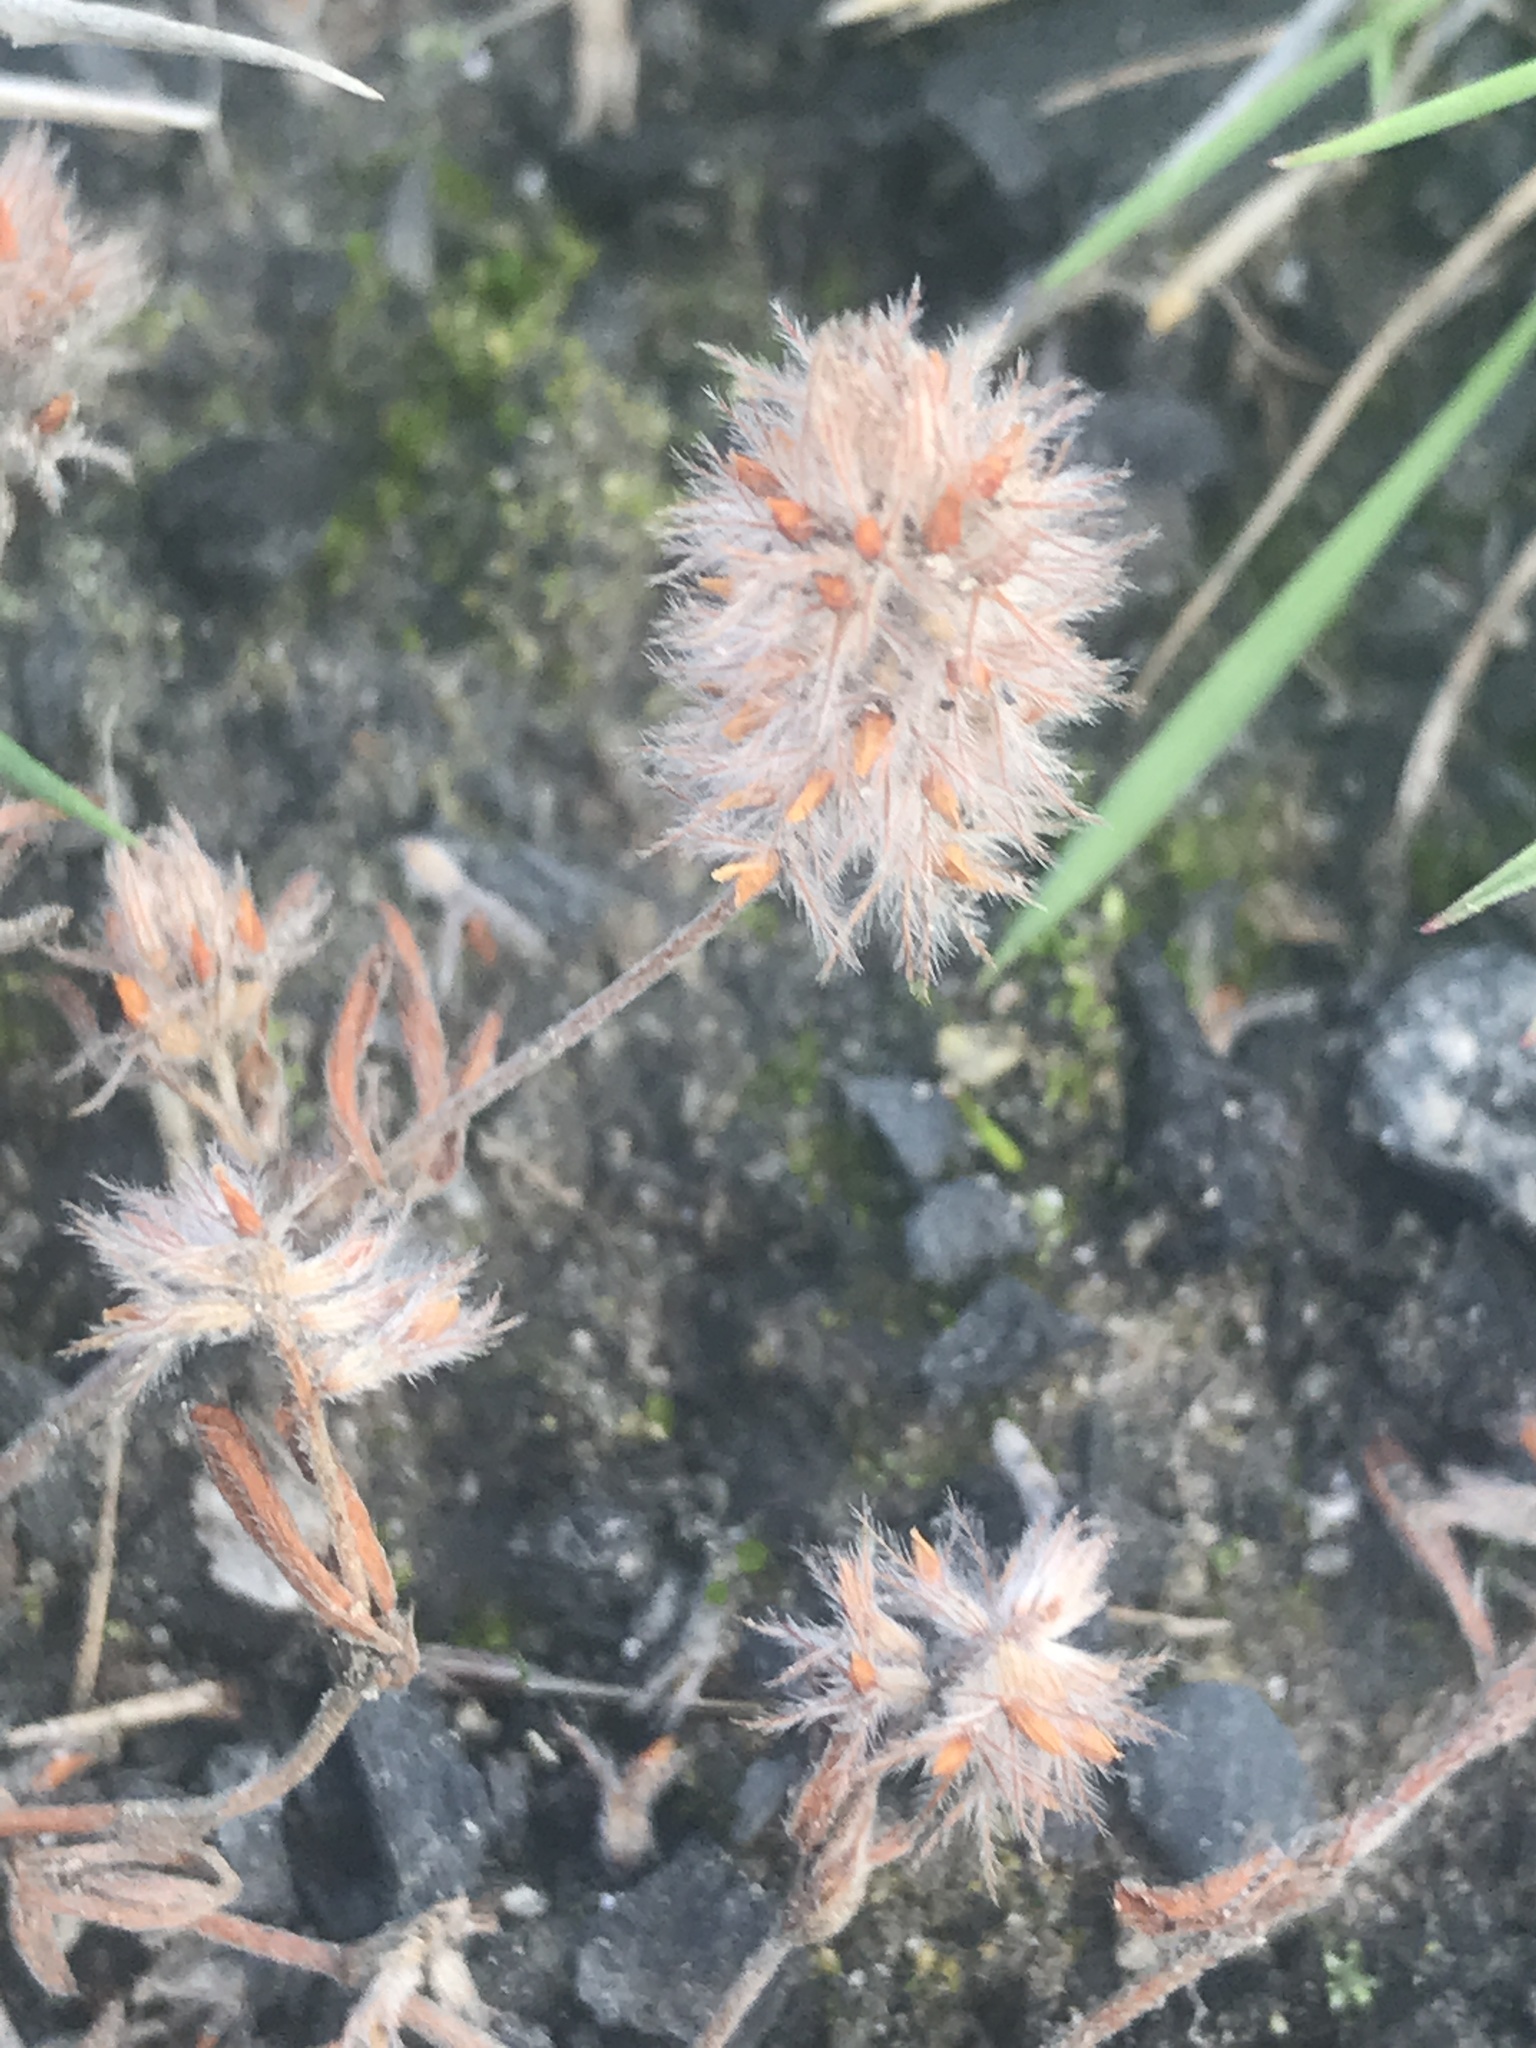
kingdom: Plantae
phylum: Tracheophyta
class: Magnoliopsida
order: Fabales
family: Fabaceae
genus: Trifolium
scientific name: Trifolium arvense
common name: Hare's-foot clover
